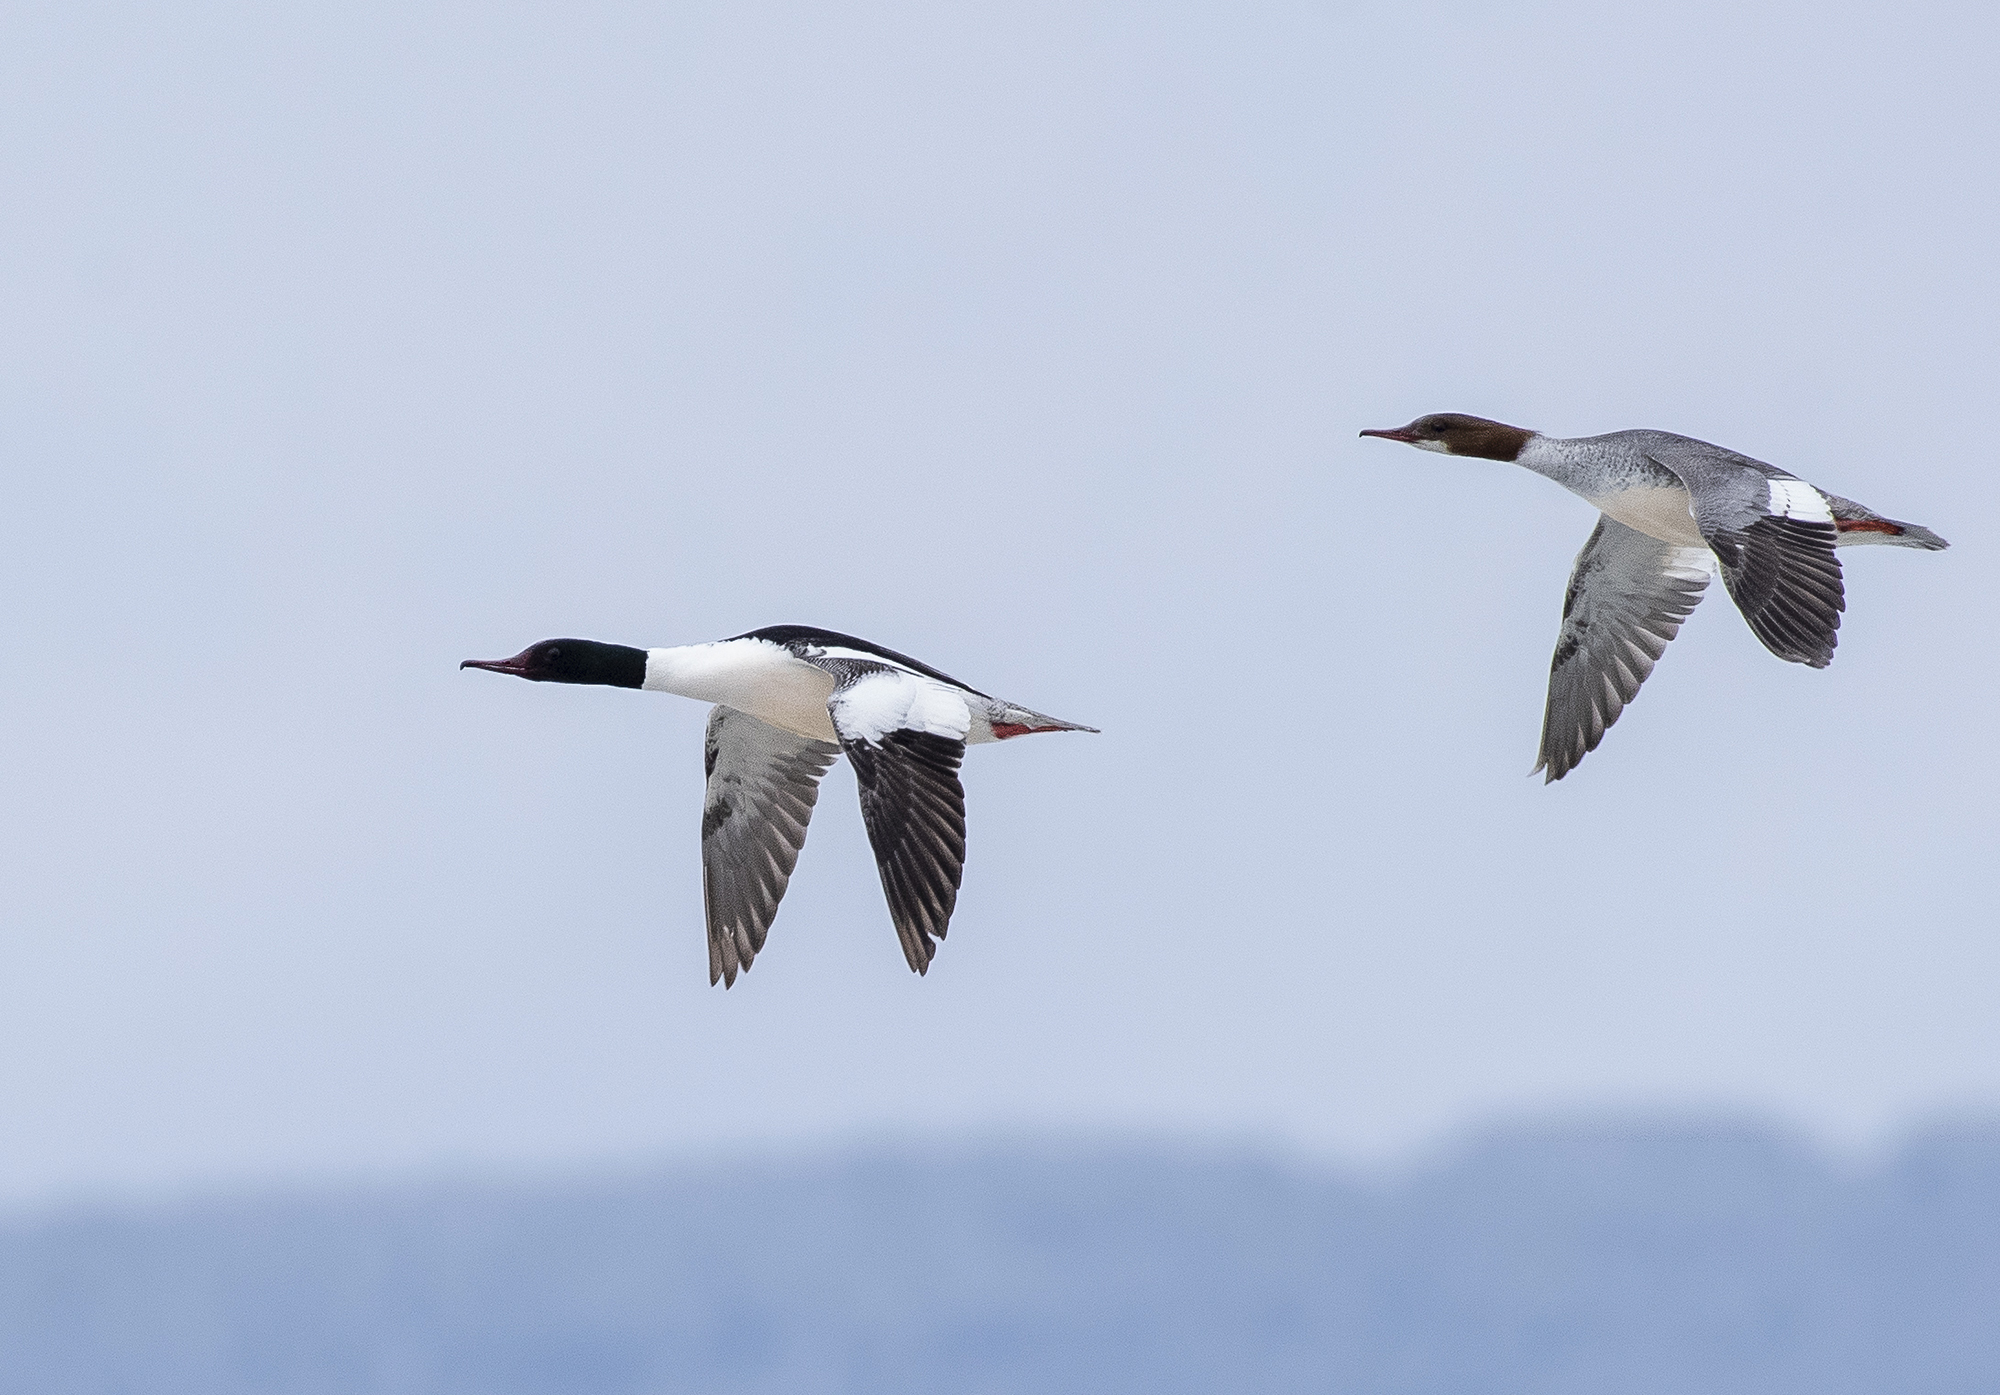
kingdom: Animalia
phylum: Chordata
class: Aves
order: Anseriformes
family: Anatidae
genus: Mergus
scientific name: Mergus merganser
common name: Common merganser
